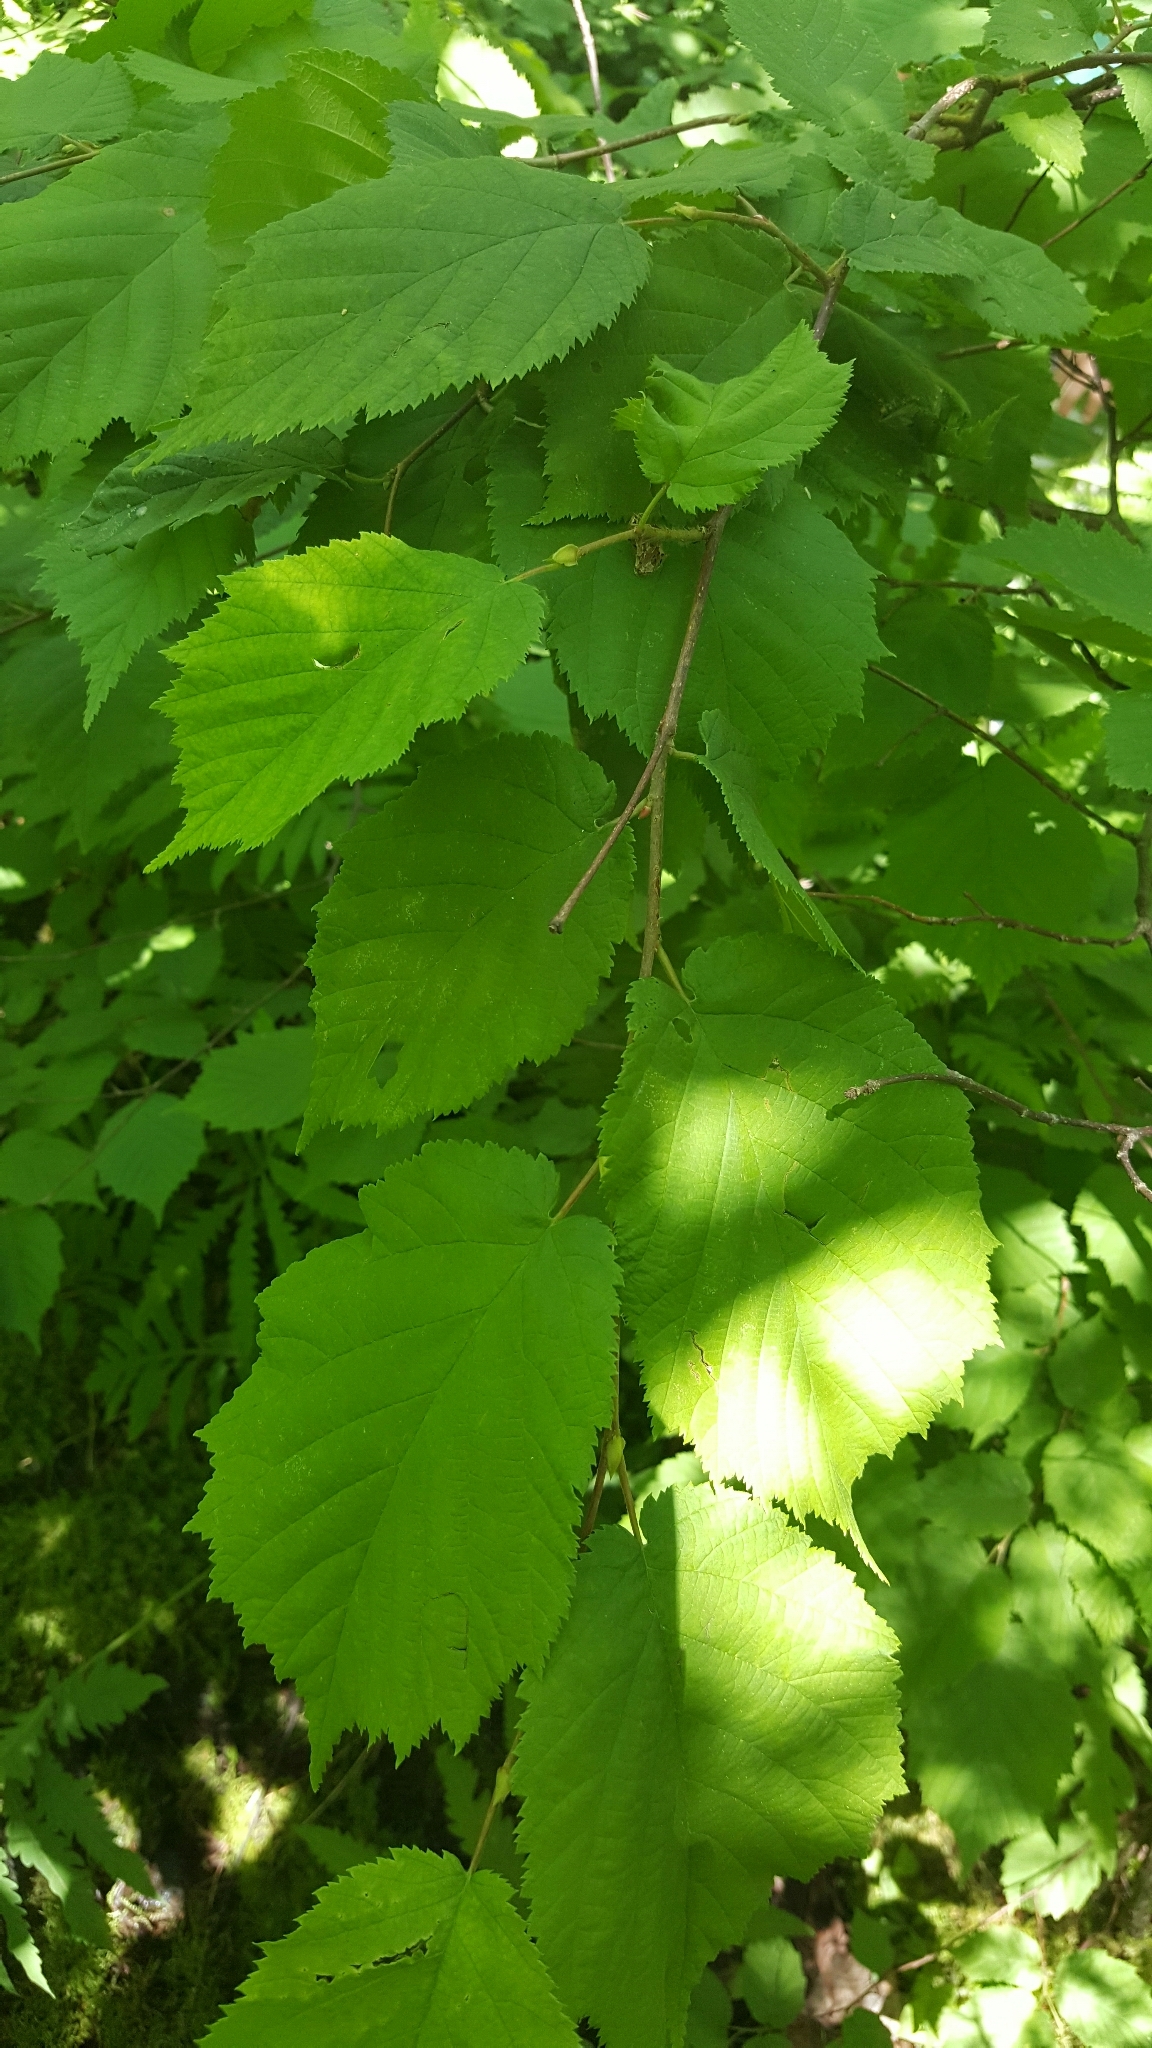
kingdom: Plantae
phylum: Tracheophyta
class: Magnoliopsida
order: Fagales
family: Betulaceae
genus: Corylus
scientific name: Corylus cornuta
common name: Beaked hazel
